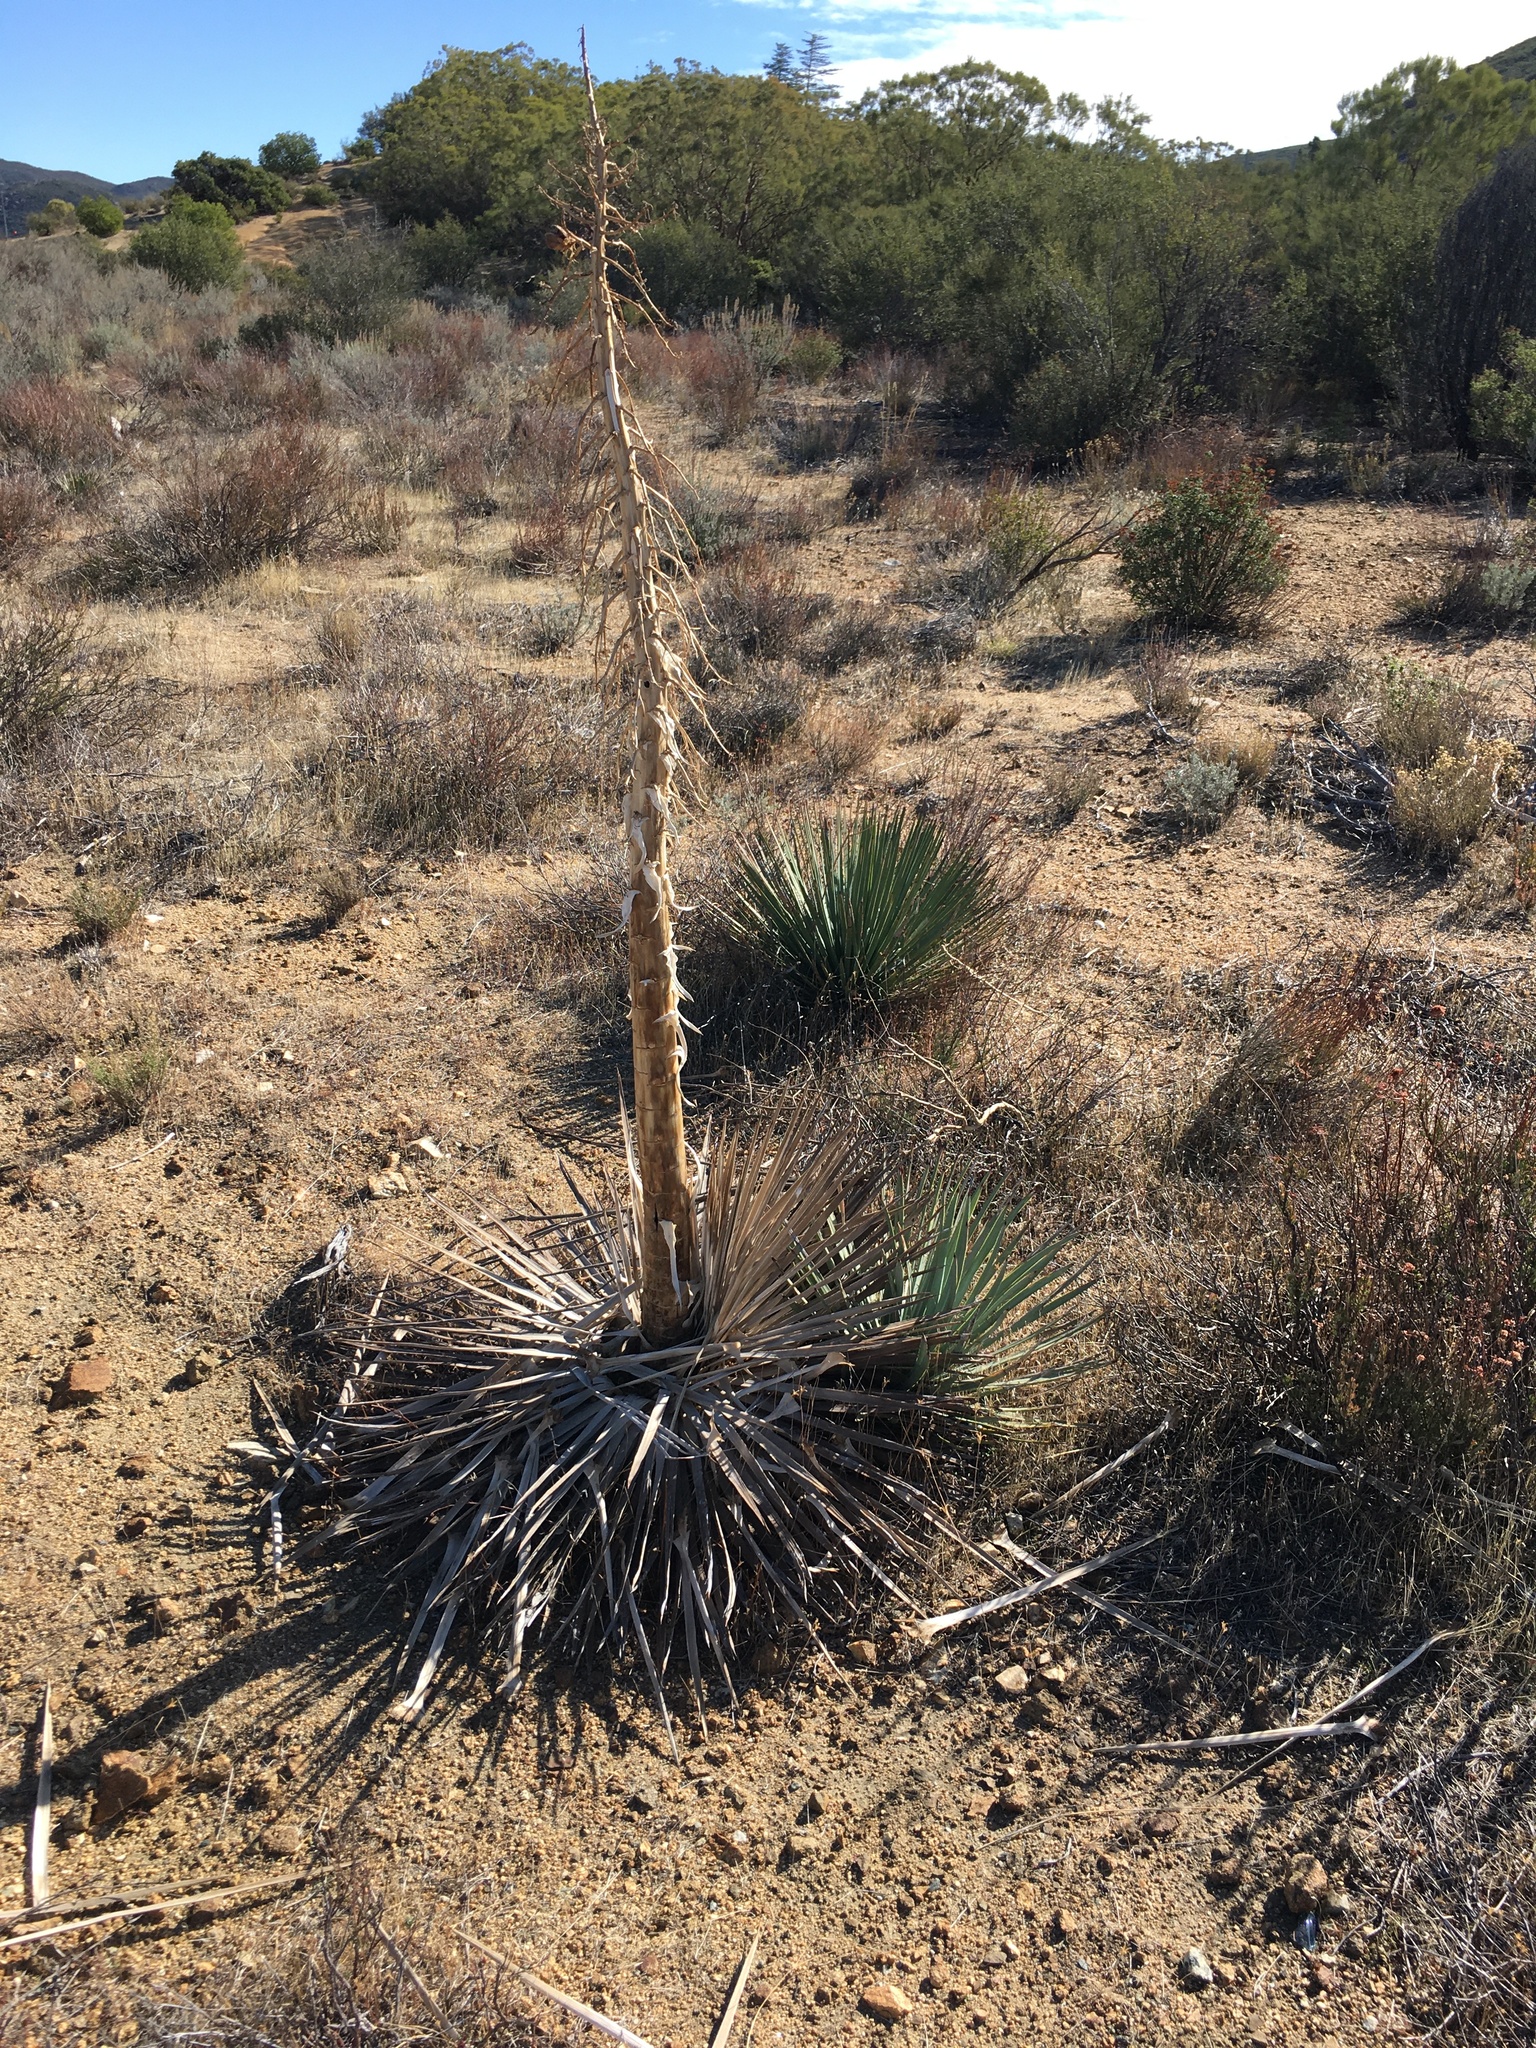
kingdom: Plantae
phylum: Tracheophyta
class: Liliopsida
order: Asparagales
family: Asparagaceae
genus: Hesperoyucca
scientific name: Hesperoyucca whipplei
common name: Our lord's-candle
